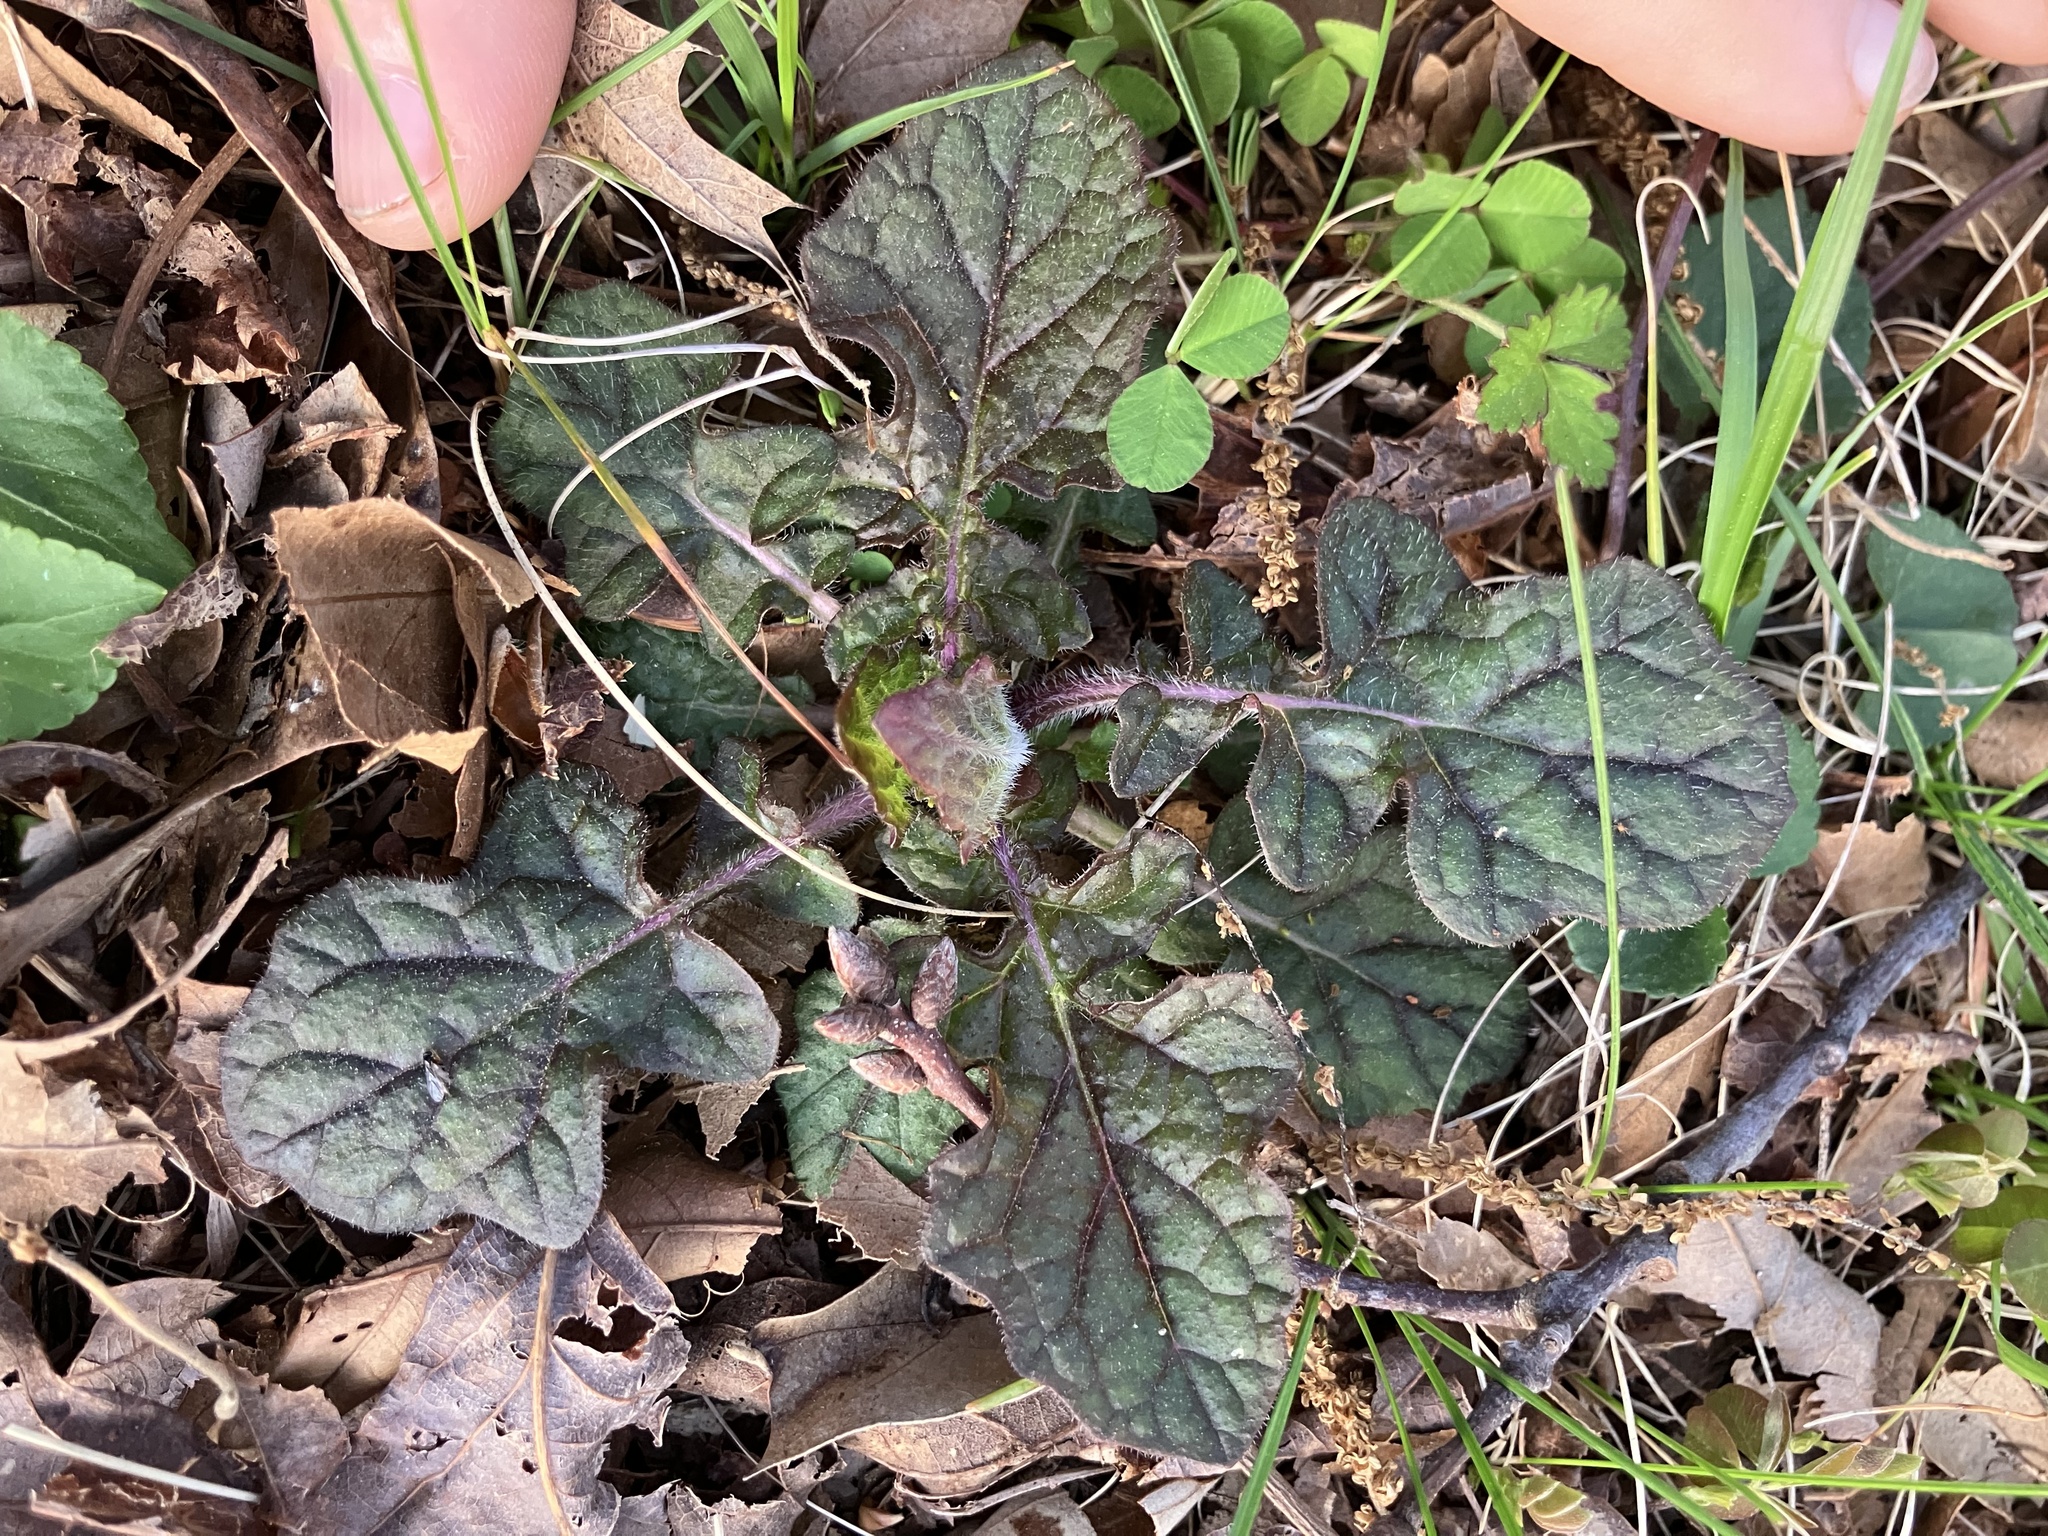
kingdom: Plantae
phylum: Tracheophyta
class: Magnoliopsida
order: Lamiales
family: Lamiaceae
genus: Salvia
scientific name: Salvia lyrata
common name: Cancerweed
